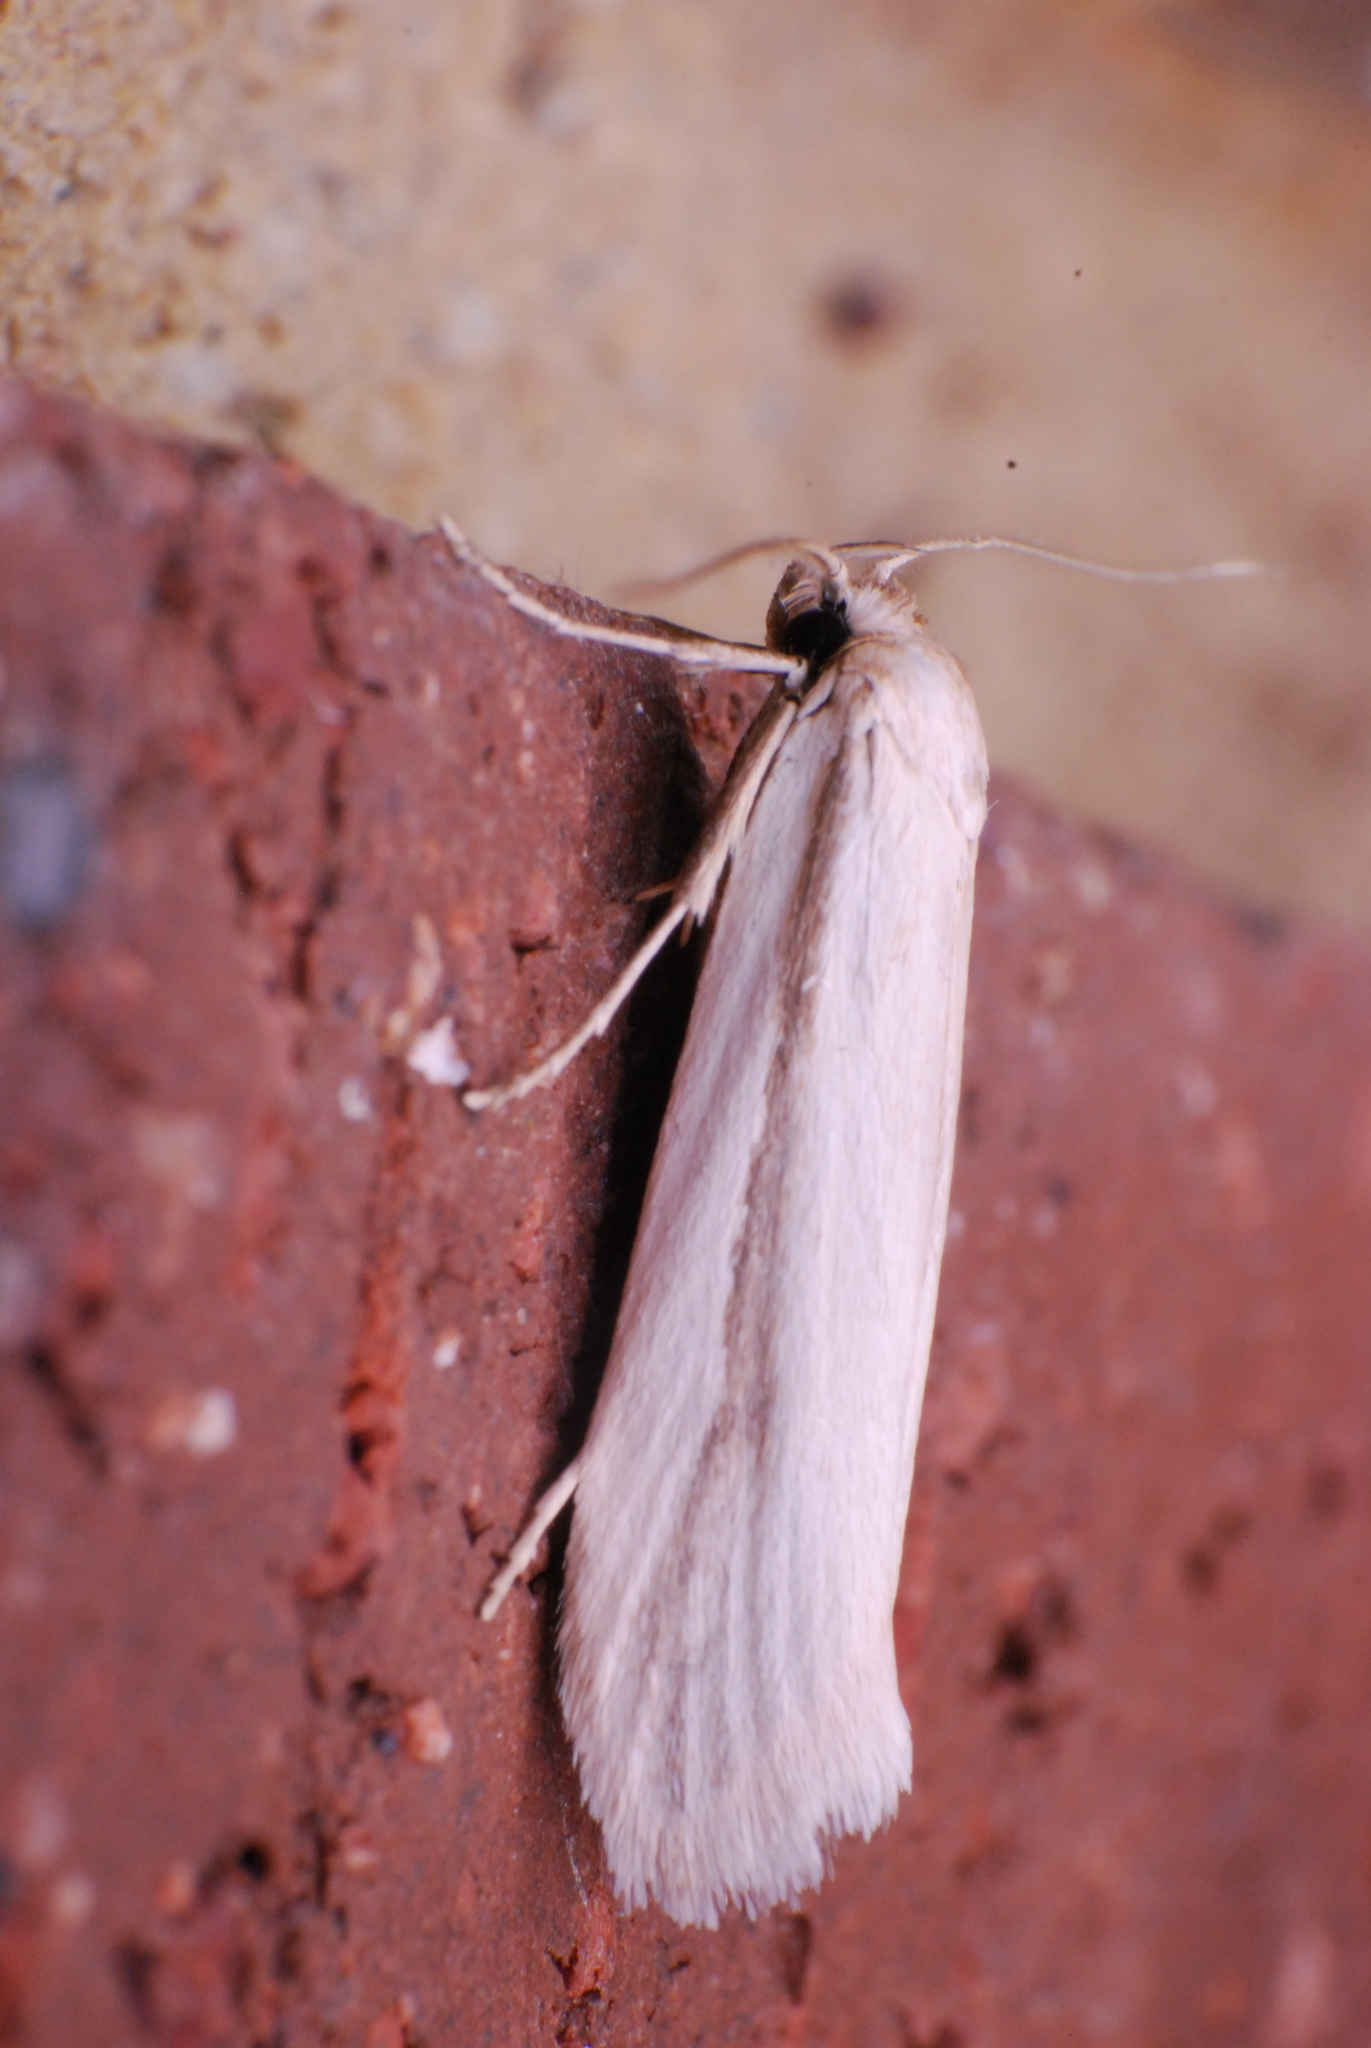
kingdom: Animalia
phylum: Arthropoda
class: Insecta
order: Lepidoptera
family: Oecophoridae
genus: Philobota
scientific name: Philobota physaula
